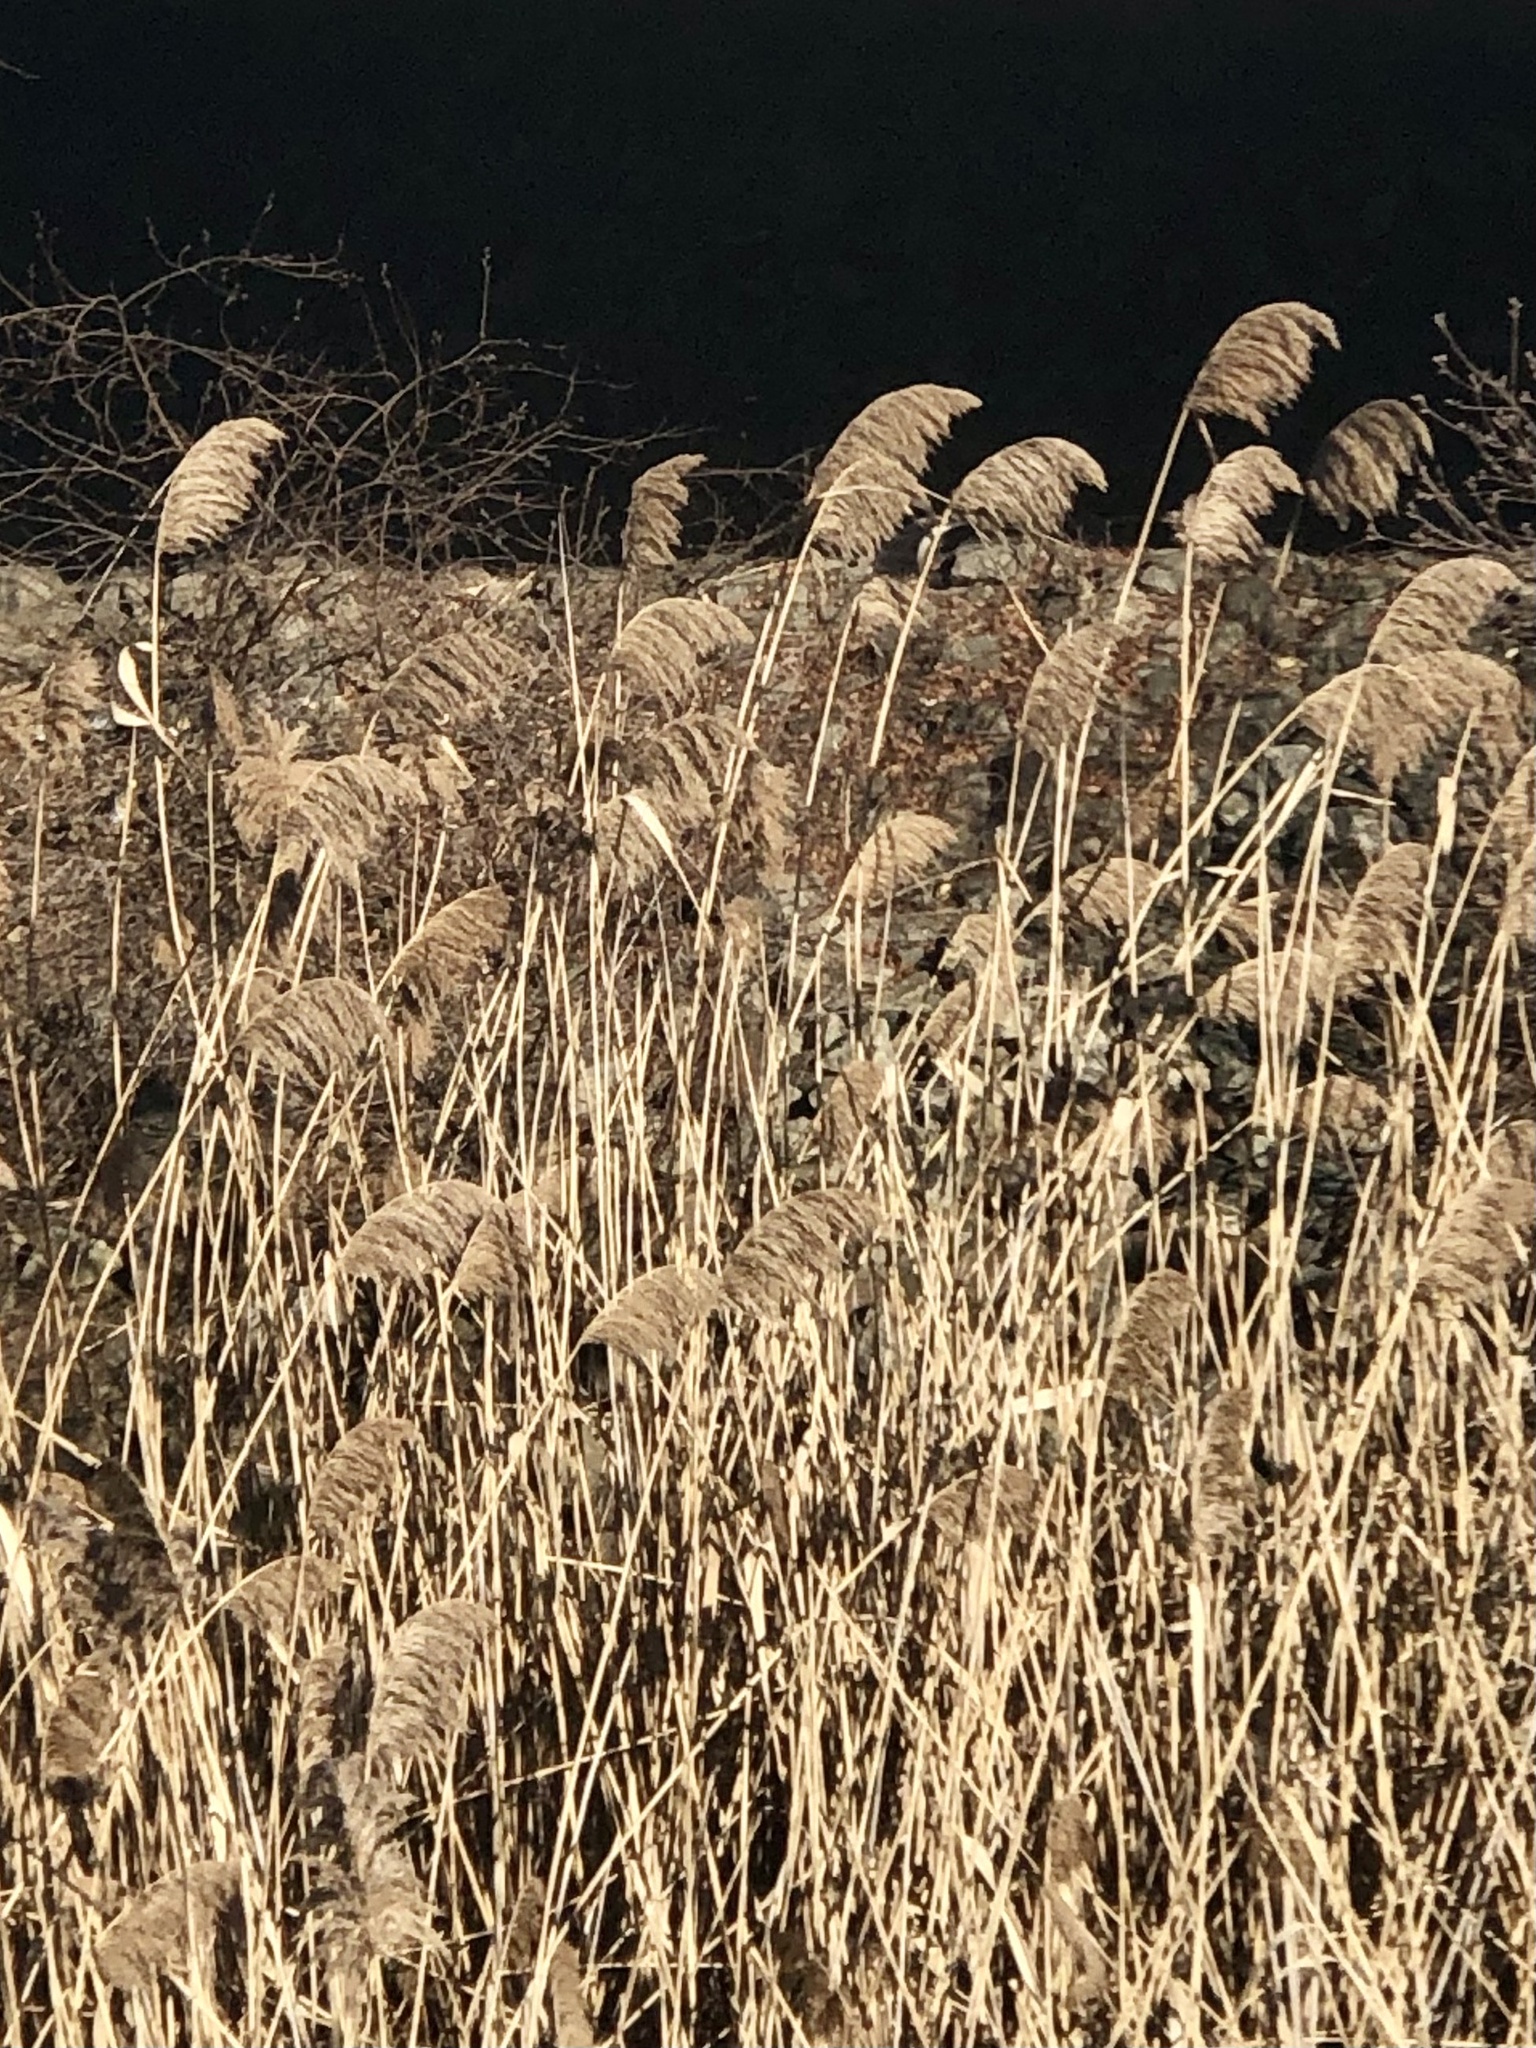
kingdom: Plantae
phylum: Tracheophyta
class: Liliopsida
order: Poales
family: Poaceae
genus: Phragmites
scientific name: Phragmites australis
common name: Common reed
